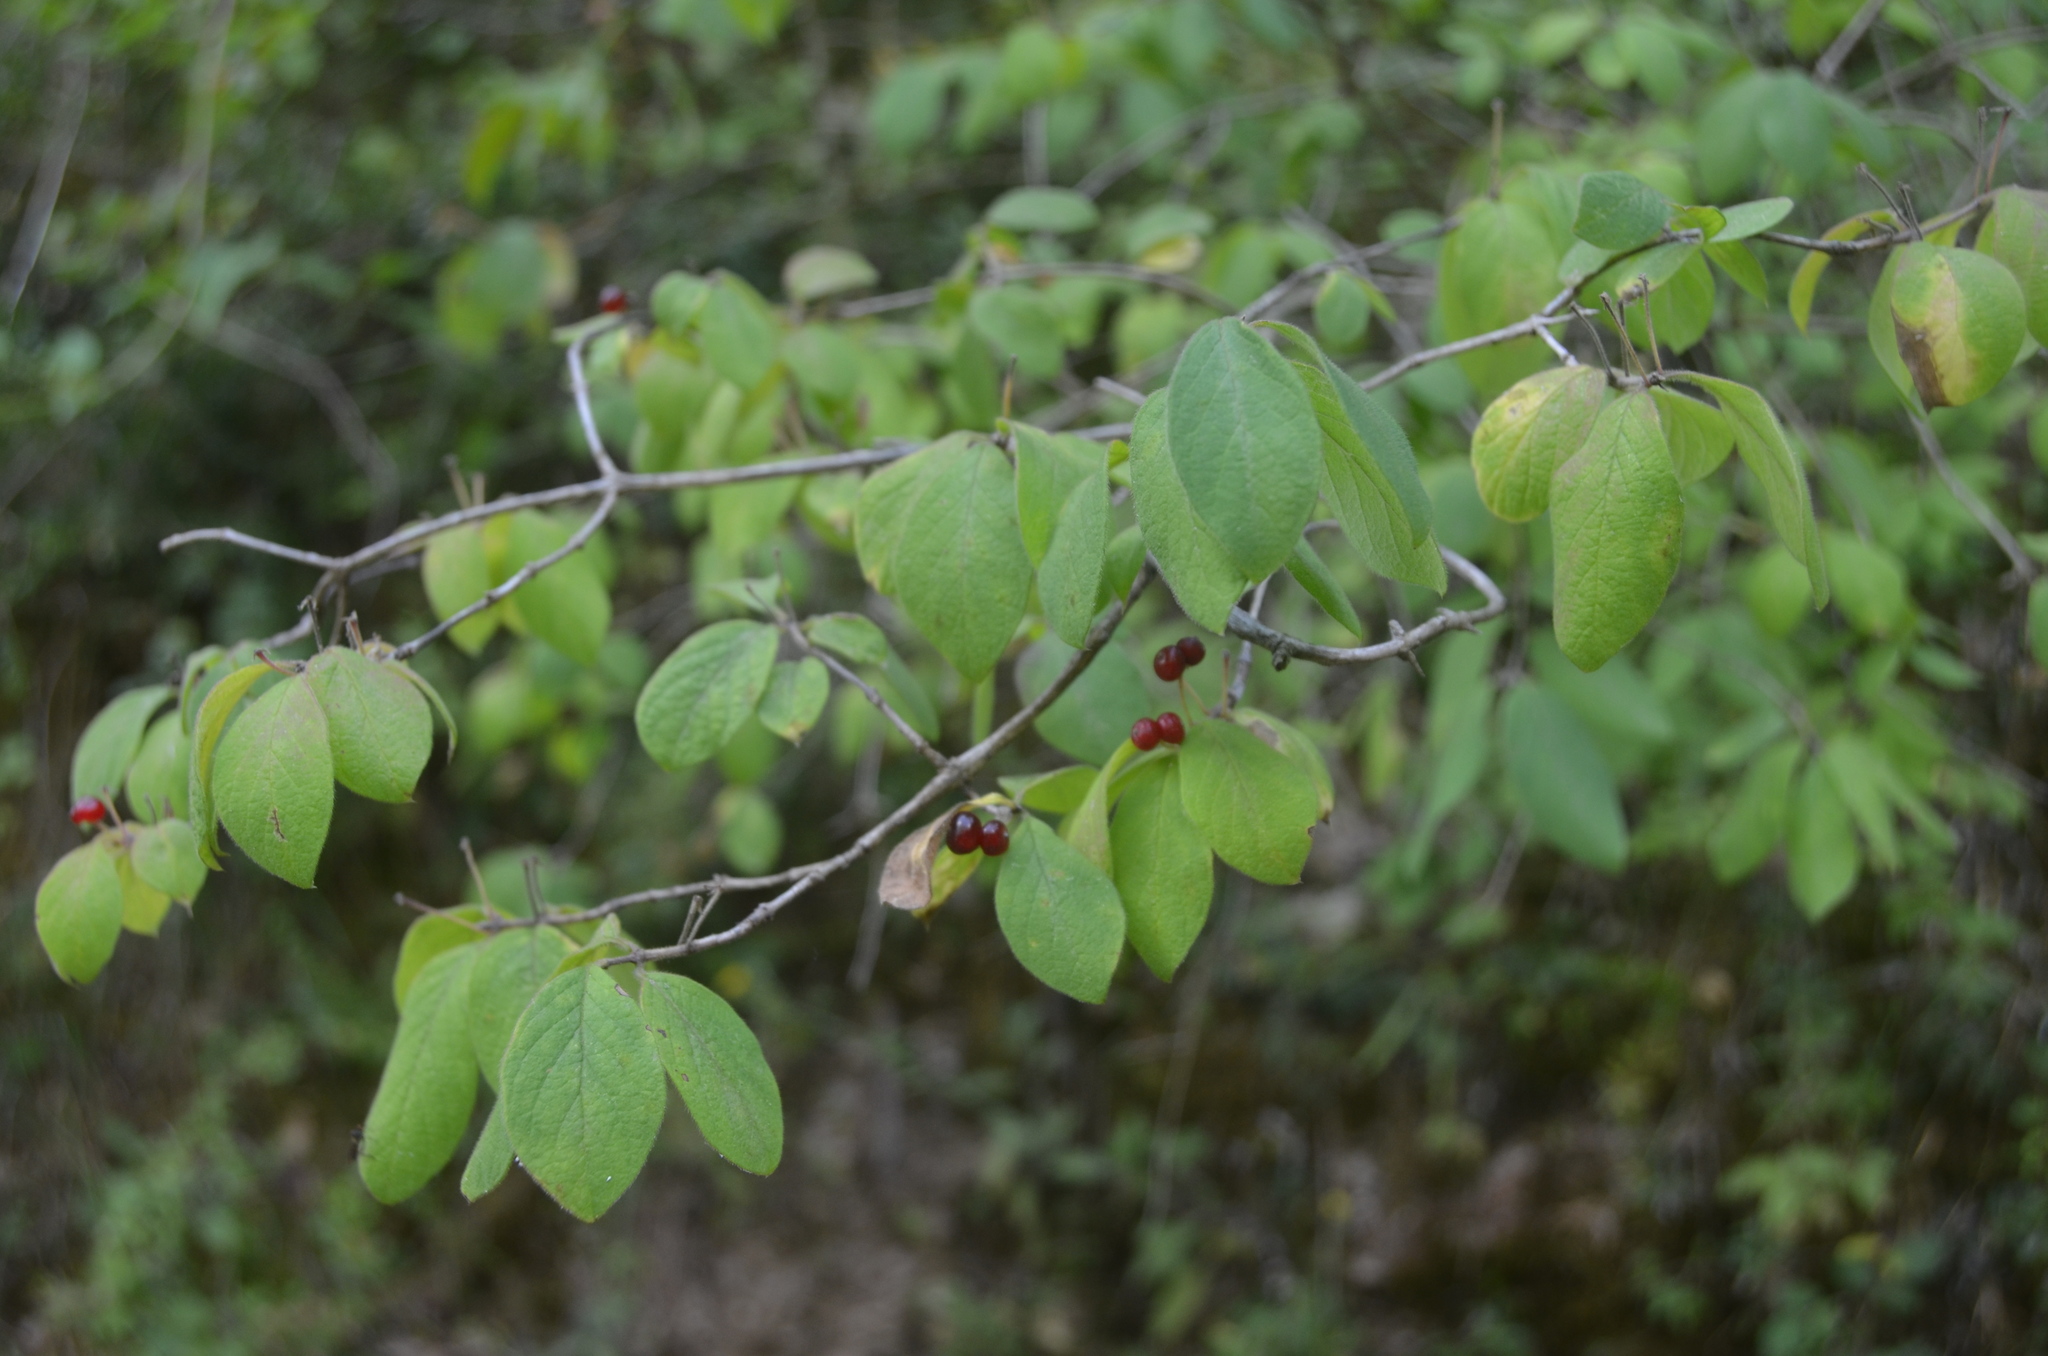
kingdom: Plantae
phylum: Tracheophyta
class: Magnoliopsida
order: Dipsacales
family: Caprifoliaceae
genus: Lonicera
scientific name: Lonicera xylosteum
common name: Fly honeysuckle
